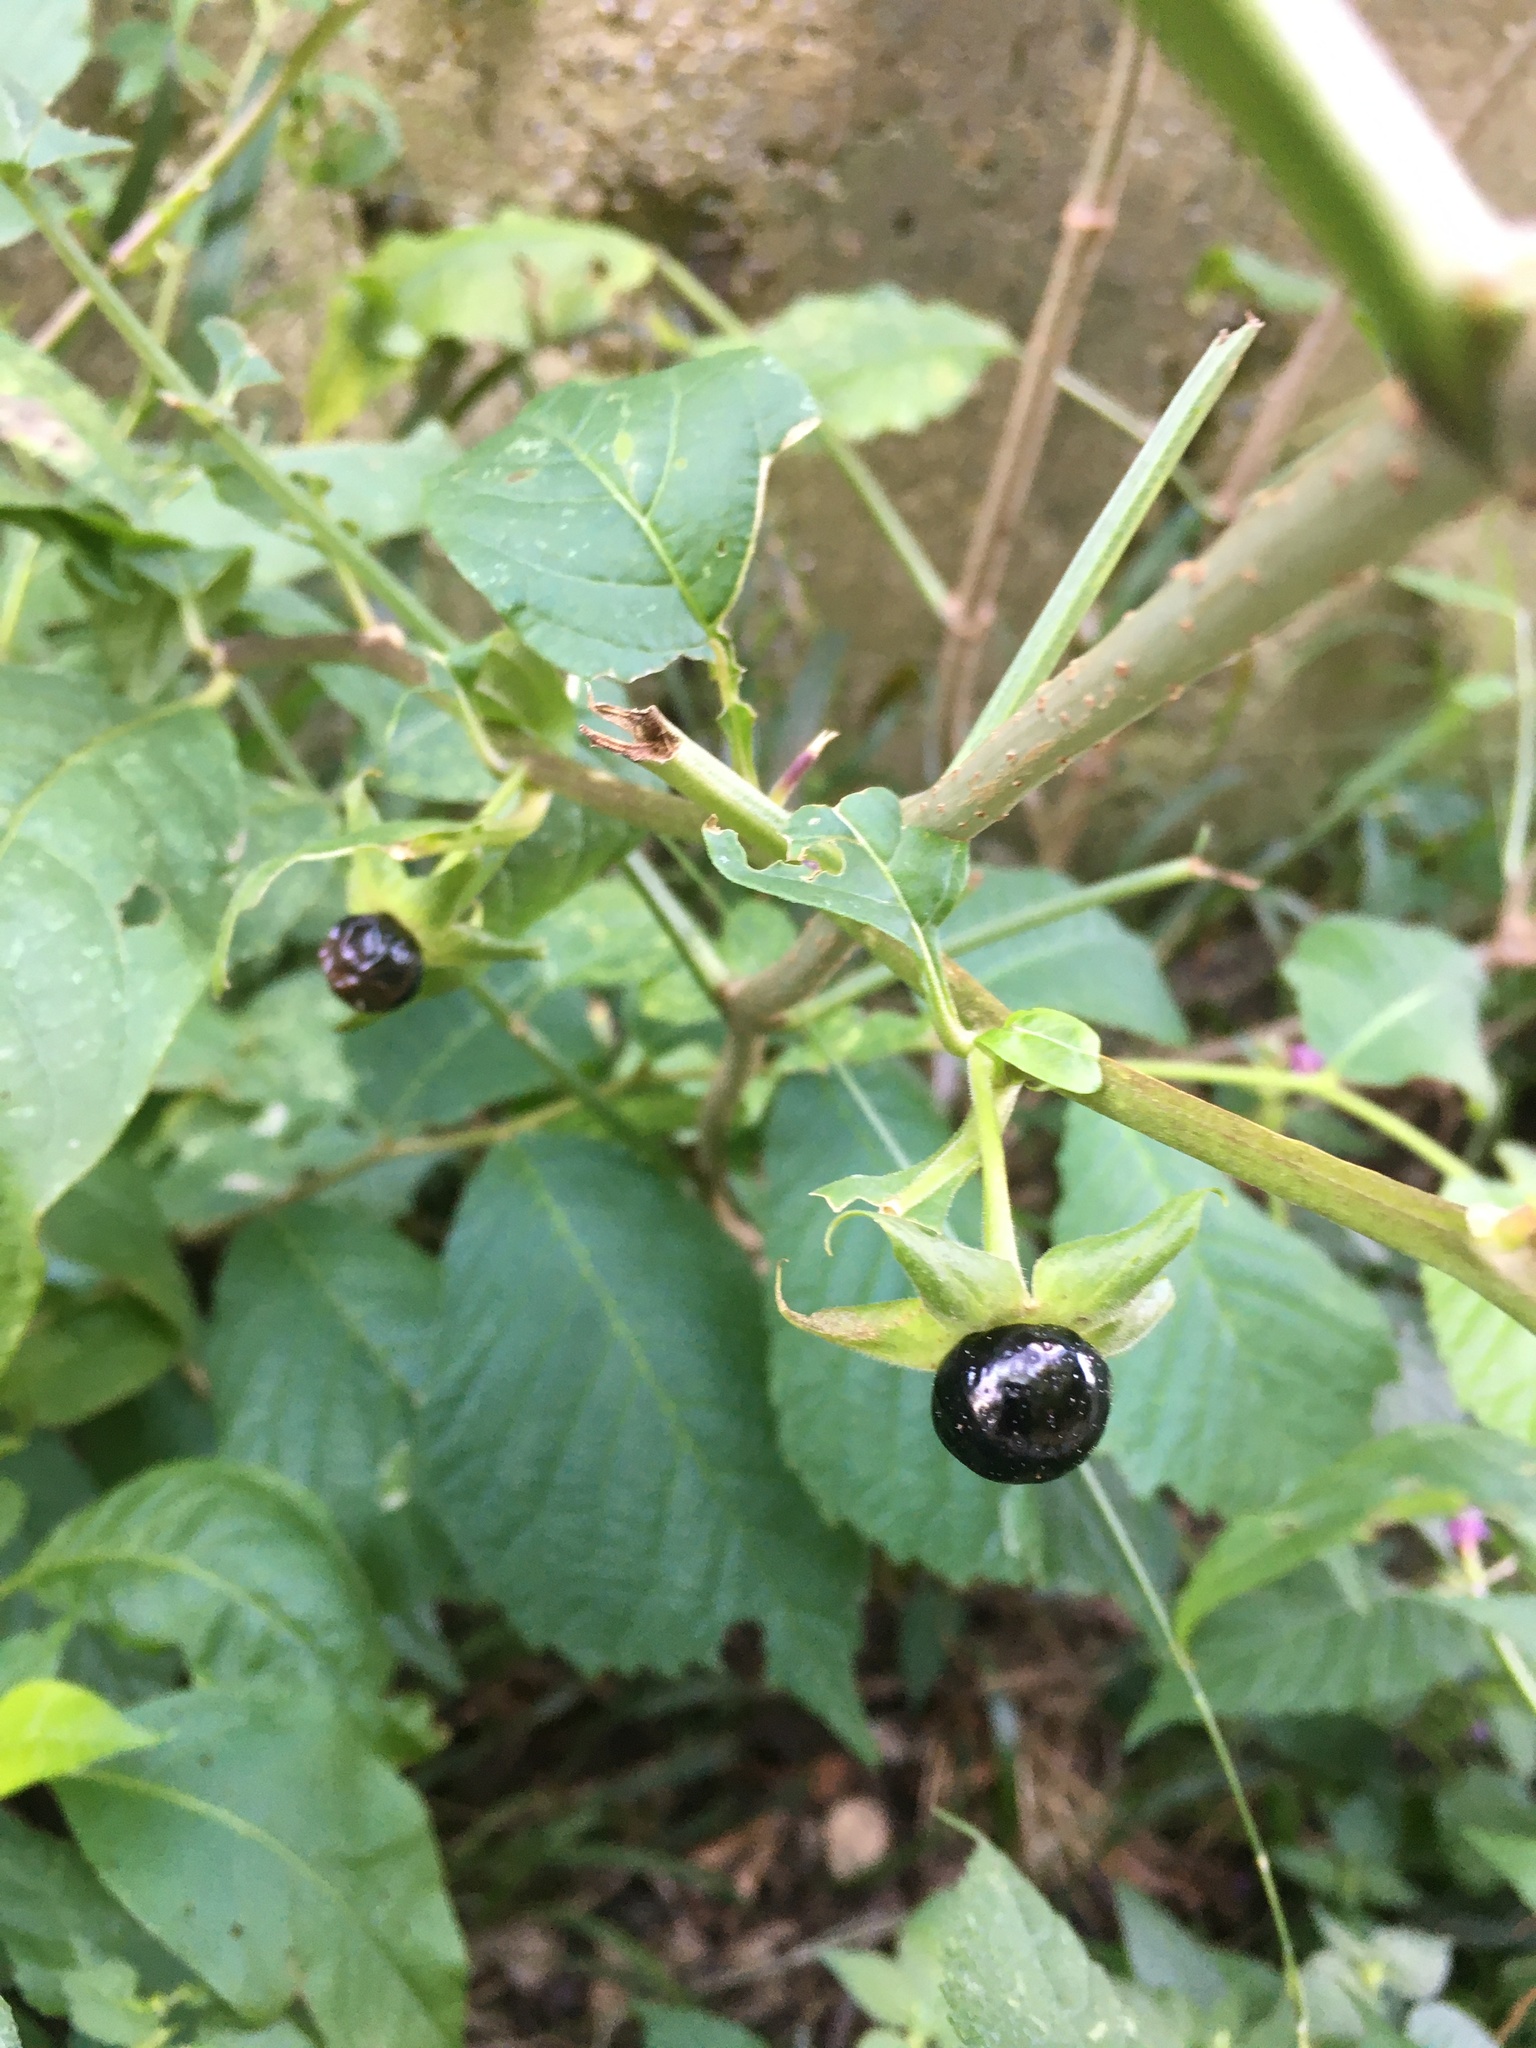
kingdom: Plantae
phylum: Tracheophyta
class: Magnoliopsida
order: Solanales
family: Solanaceae
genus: Atropa
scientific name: Atropa belladonna
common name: Deadly nightshade
